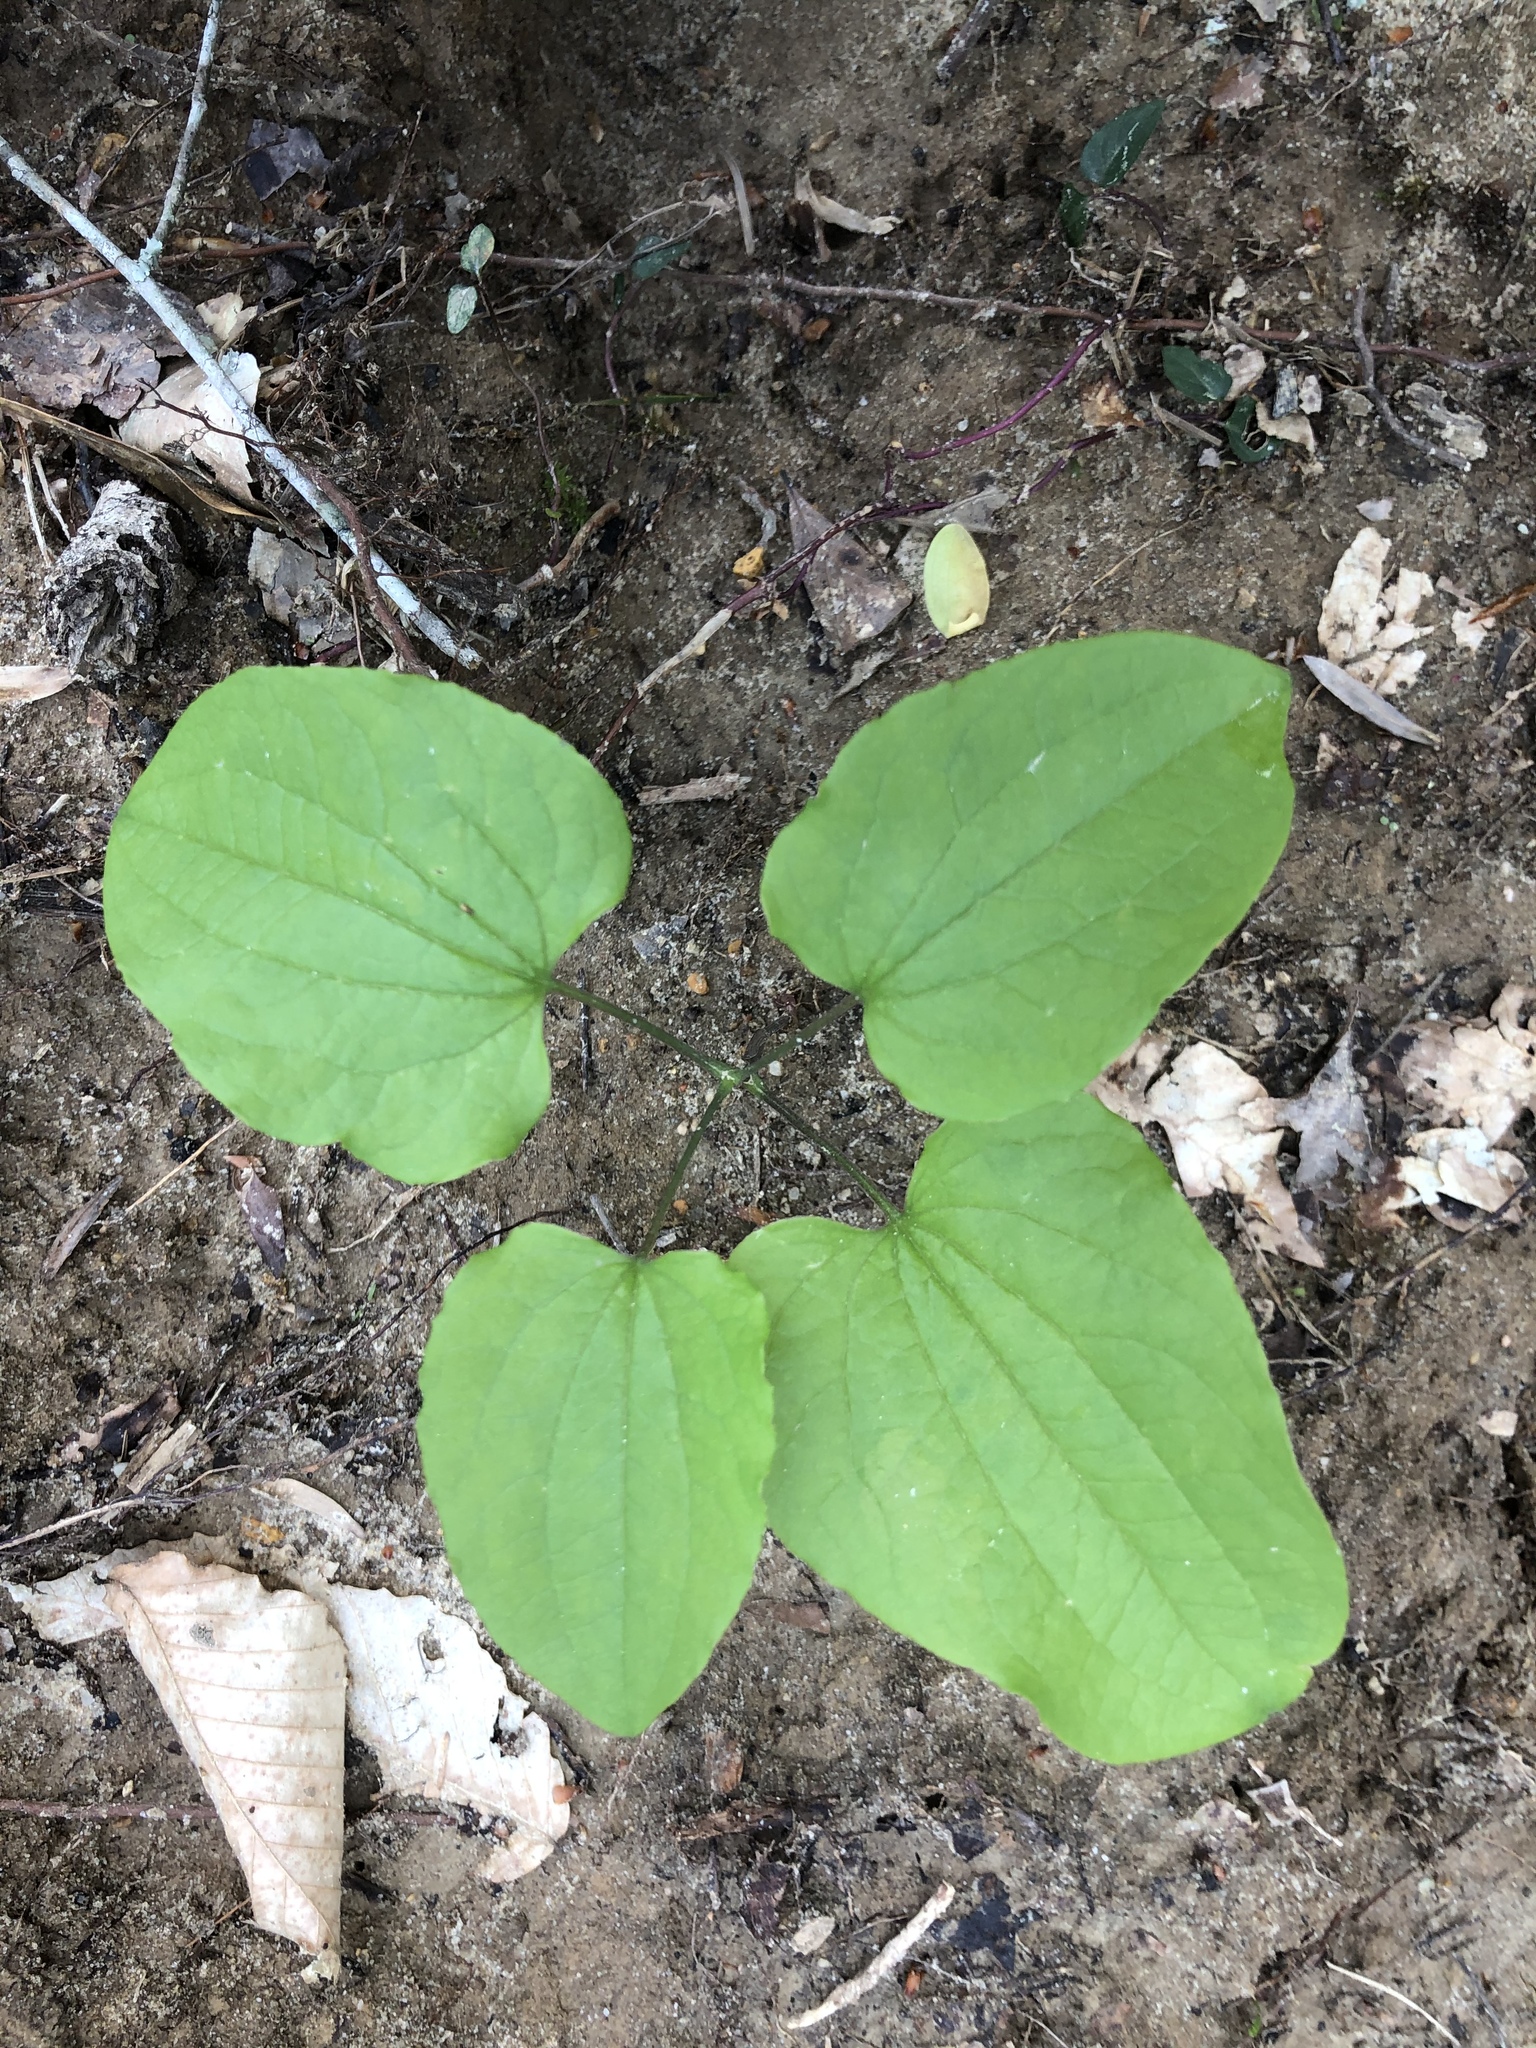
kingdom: Plantae
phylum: Tracheophyta
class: Liliopsida
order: Liliales
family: Smilacaceae
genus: Smilax
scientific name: Smilax lasioneura
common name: Blue ridge carrionflower
